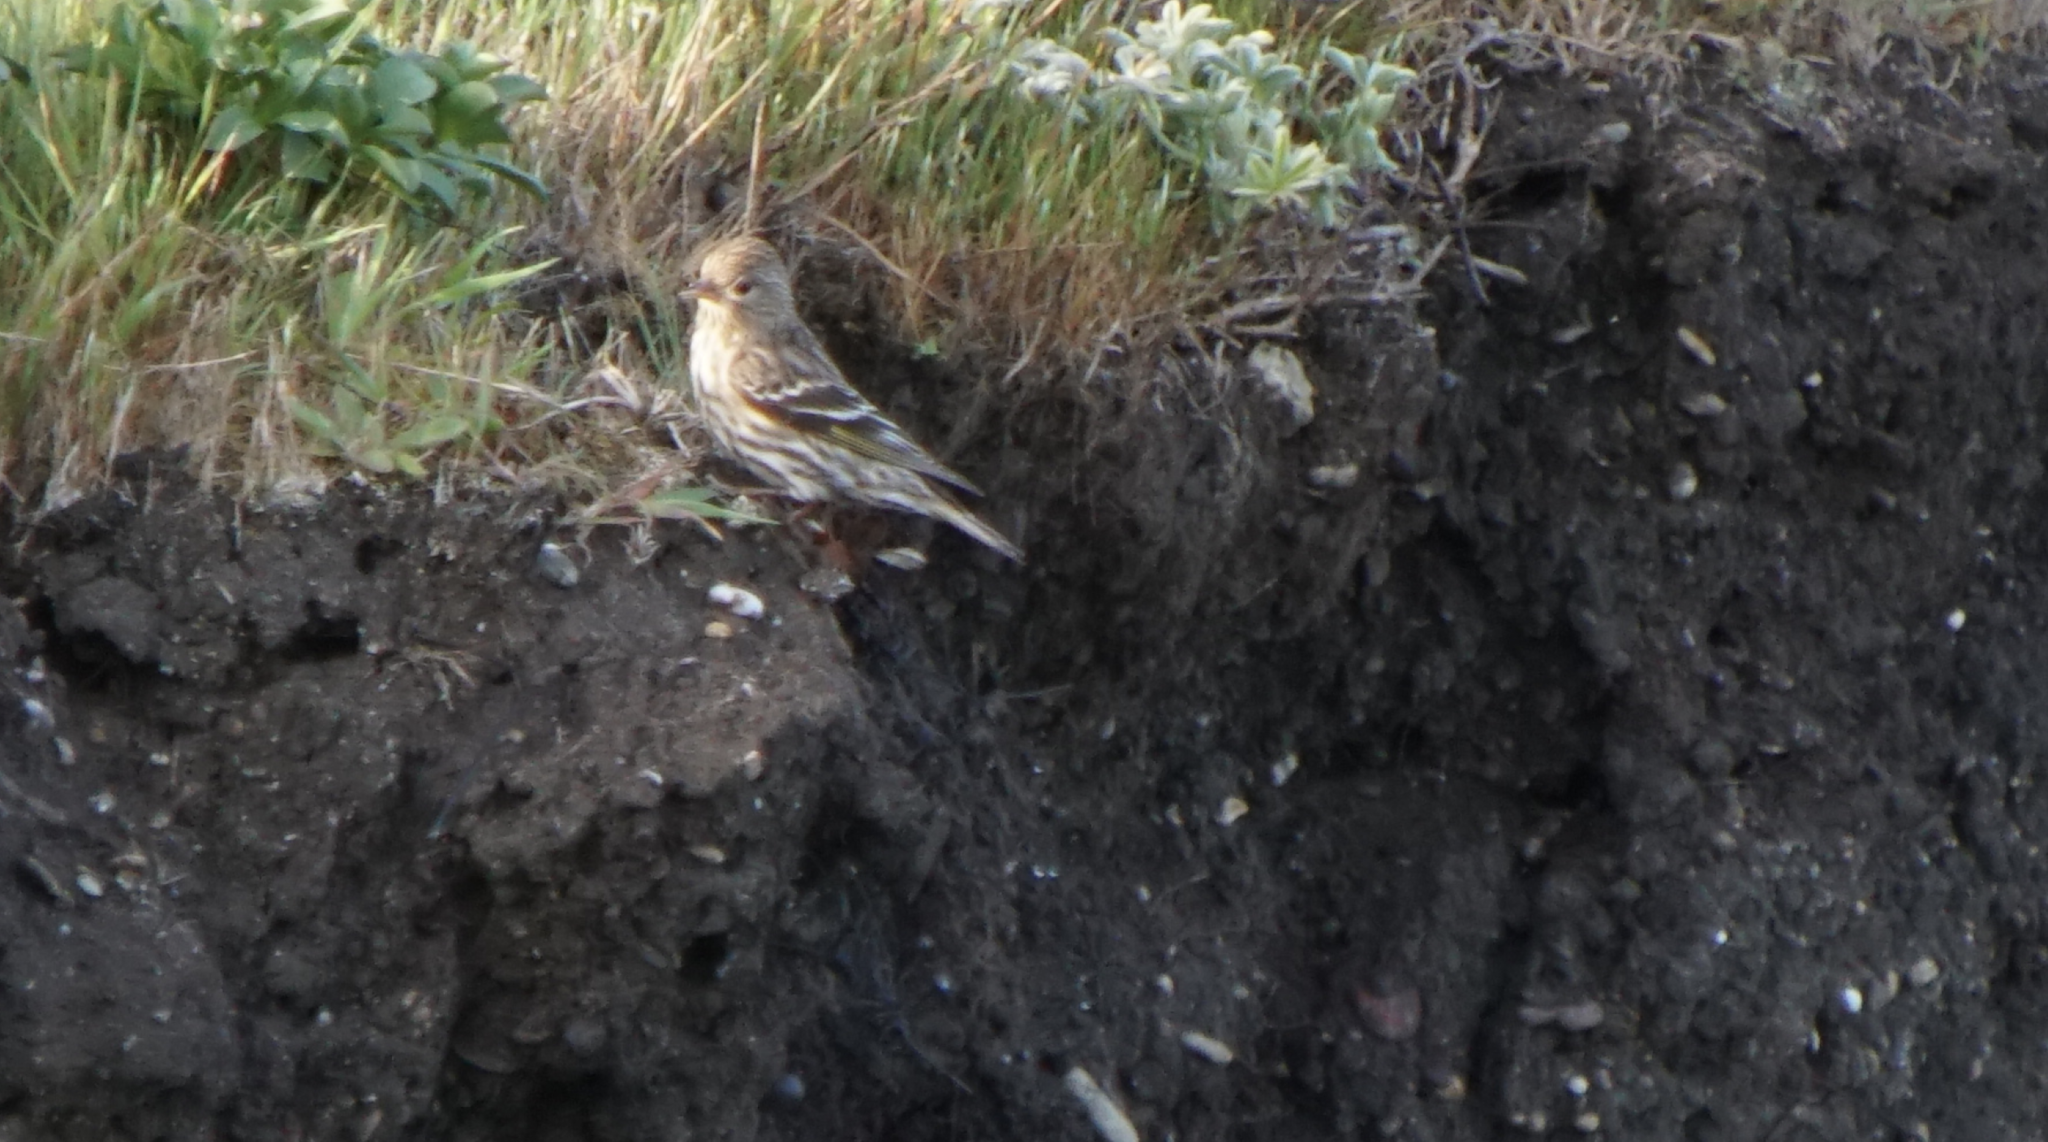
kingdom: Animalia
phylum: Chordata
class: Aves
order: Passeriformes
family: Fringillidae
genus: Spinus
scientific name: Spinus pinus
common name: Pine siskin
